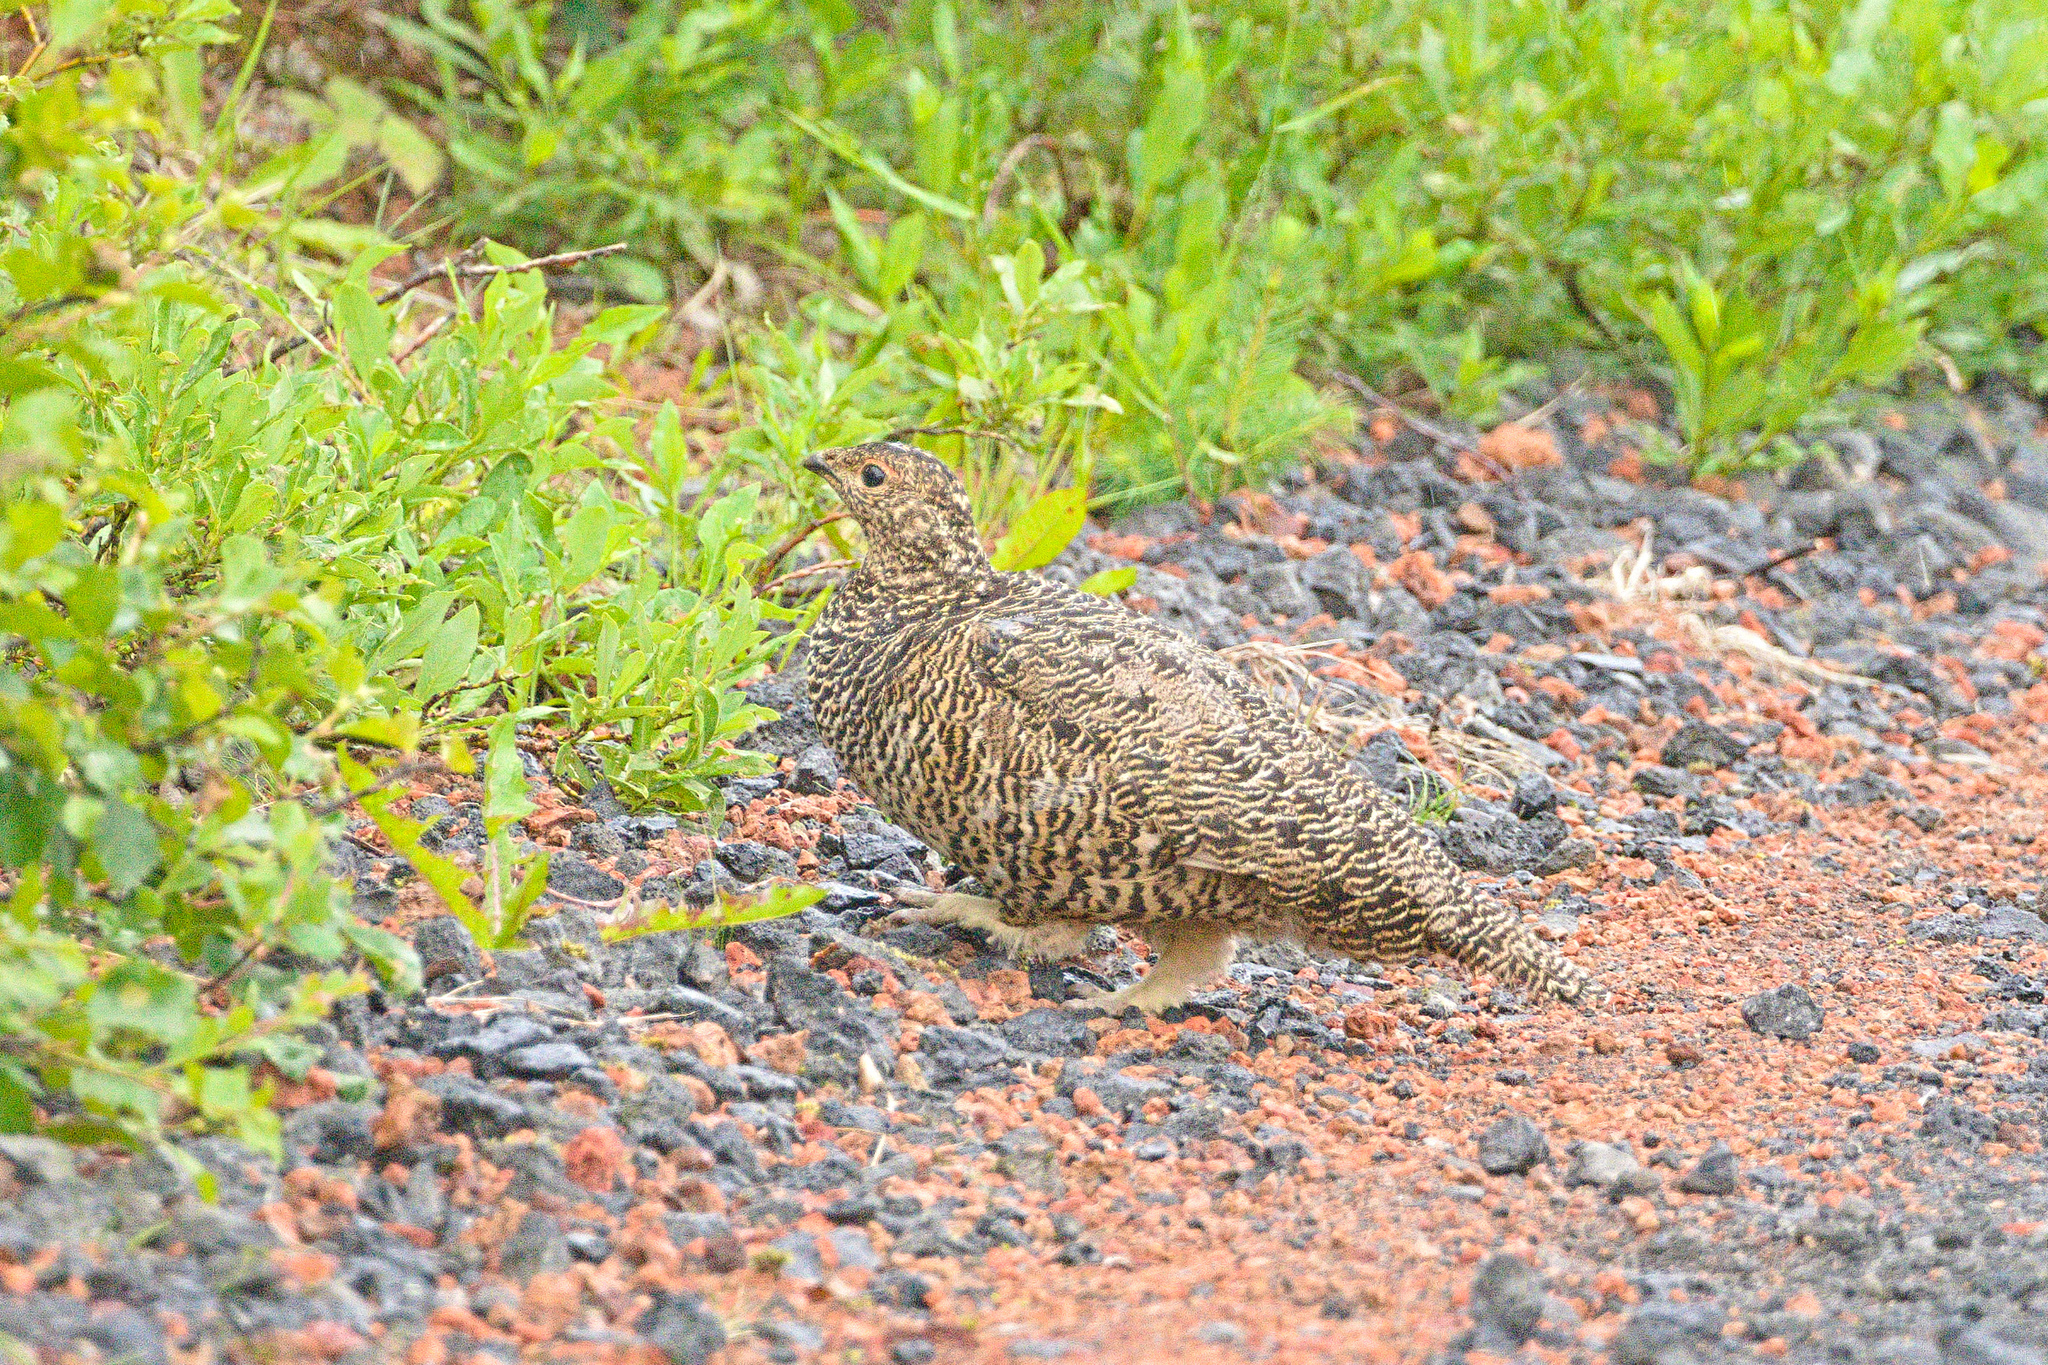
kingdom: Animalia
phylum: Chordata
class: Aves
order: Galliformes
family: Phasianidae
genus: Lagopus
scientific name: Lagopus muta
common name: Rock ptarmigan
